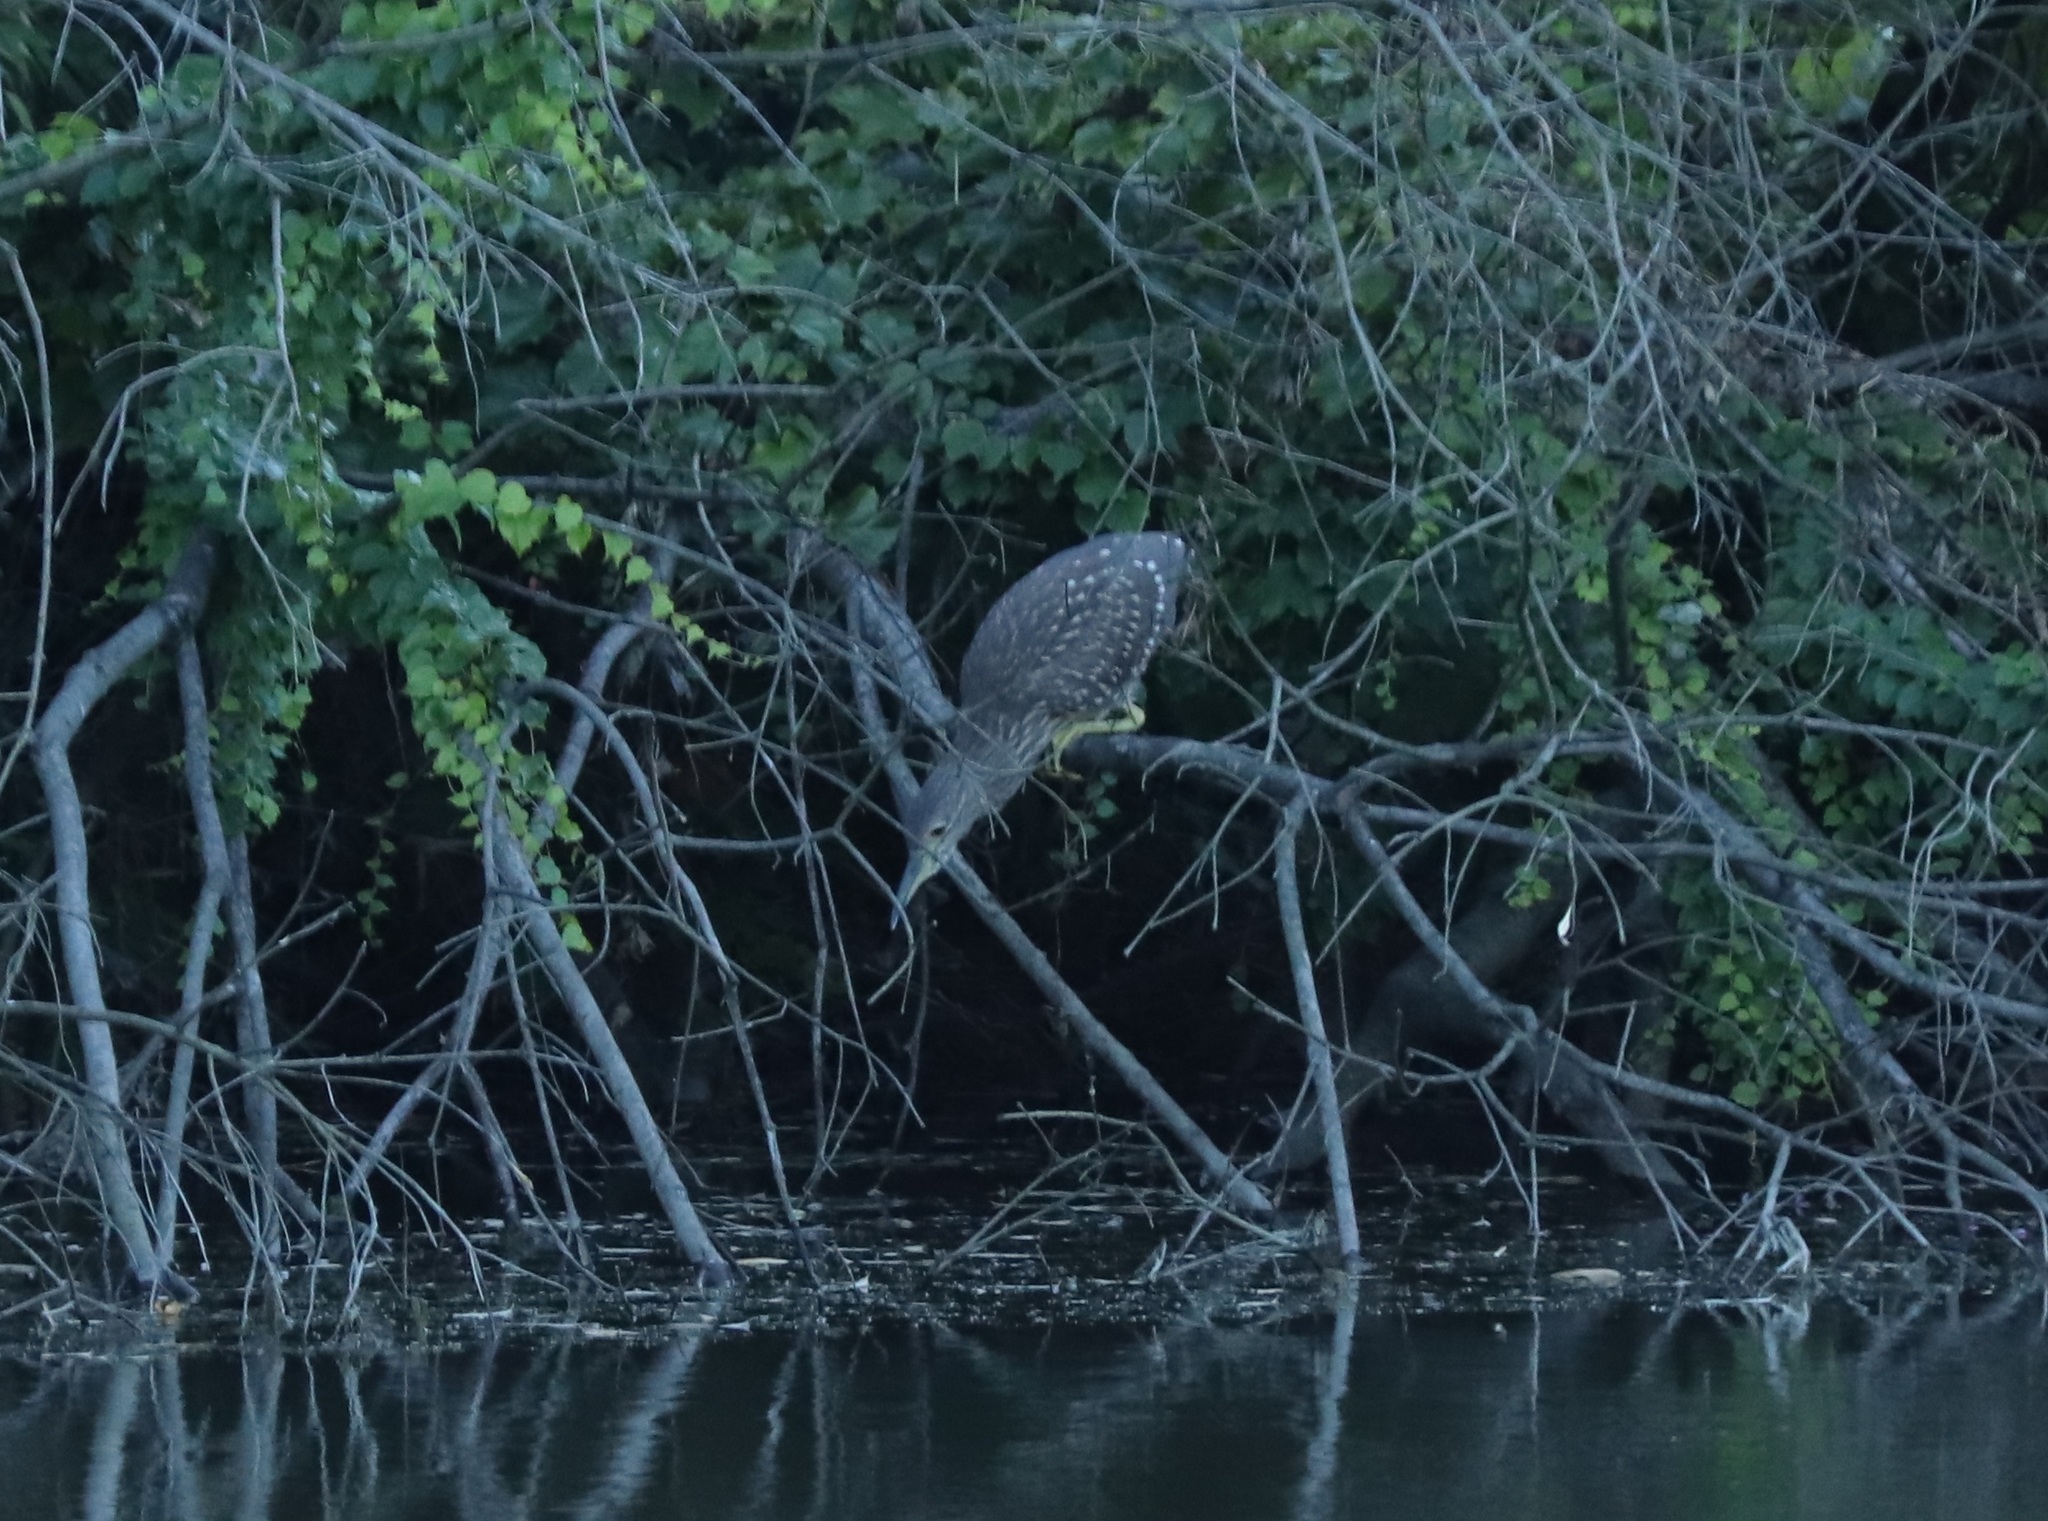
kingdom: Animalia
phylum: Chordata
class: Aves
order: Pelecaniformes
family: Ardeidae
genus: Nycticorax
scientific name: Nycticorax nycticorax
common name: Black-crowned night heron
